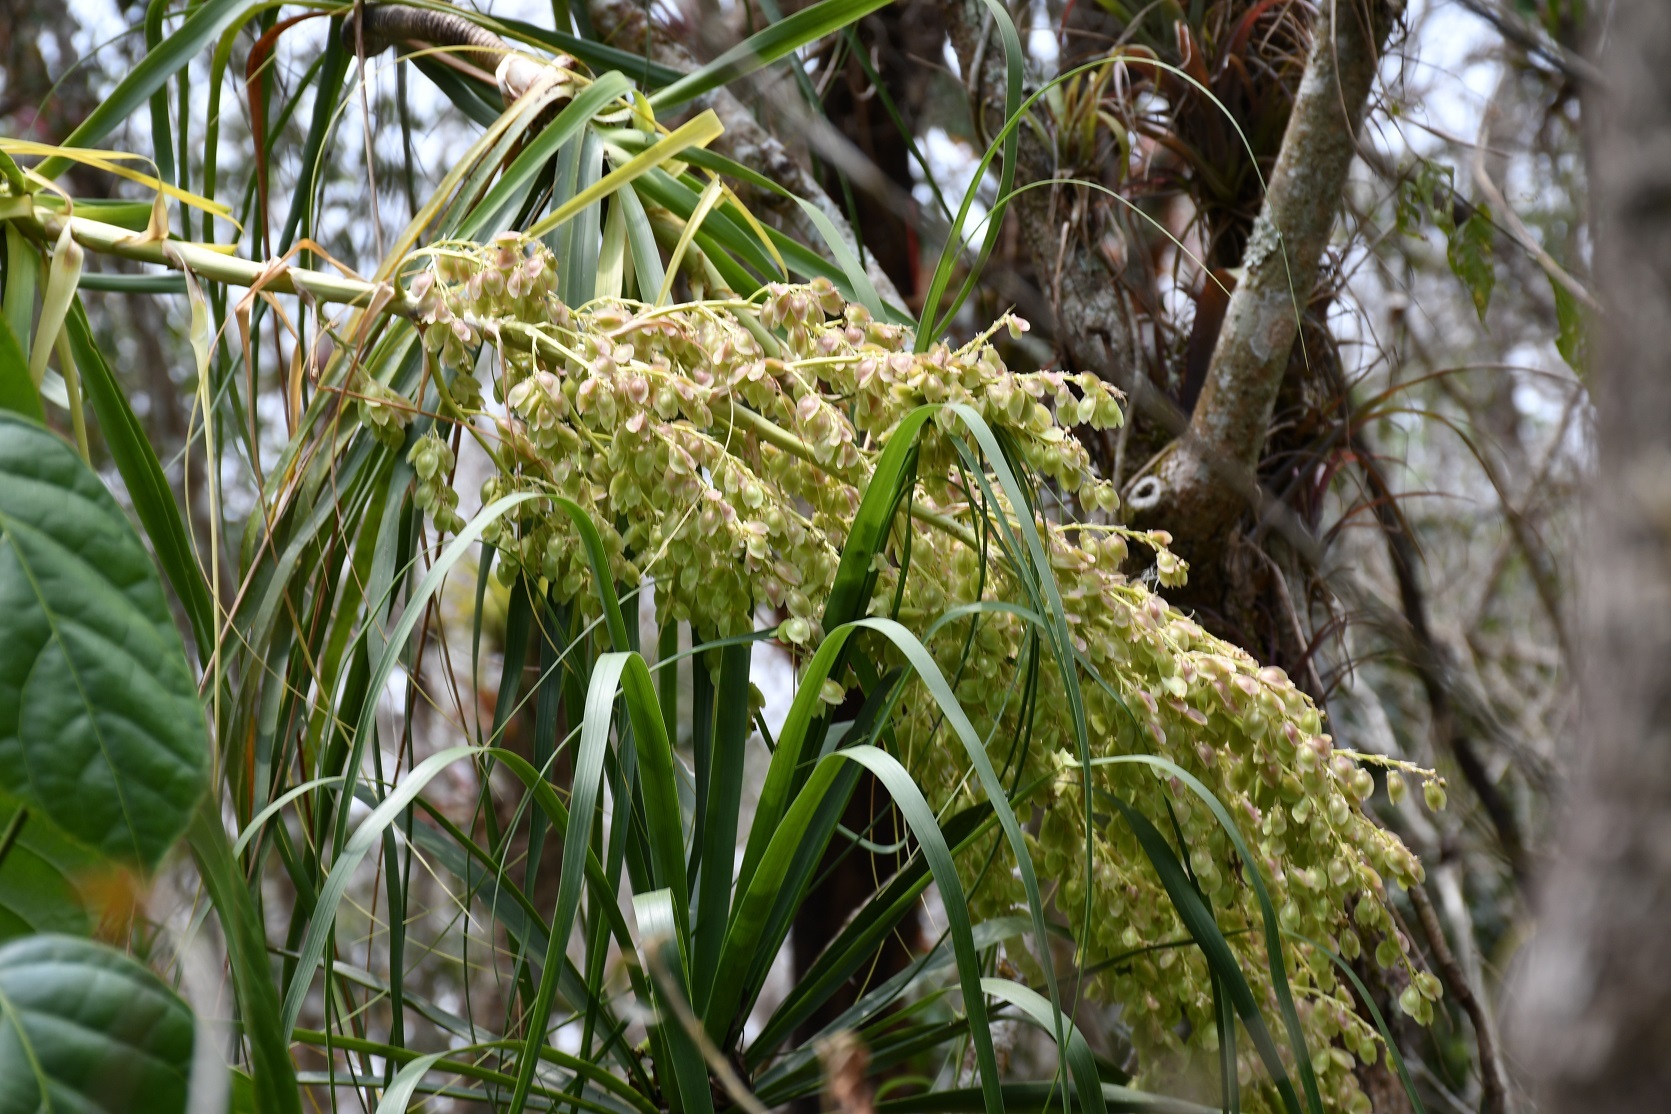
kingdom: Plantae
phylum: Tracheophyta
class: Liliopsida
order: Asparagales
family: Asparagaceae
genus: Beaucarnea
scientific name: Beaucarnea goldmanii
